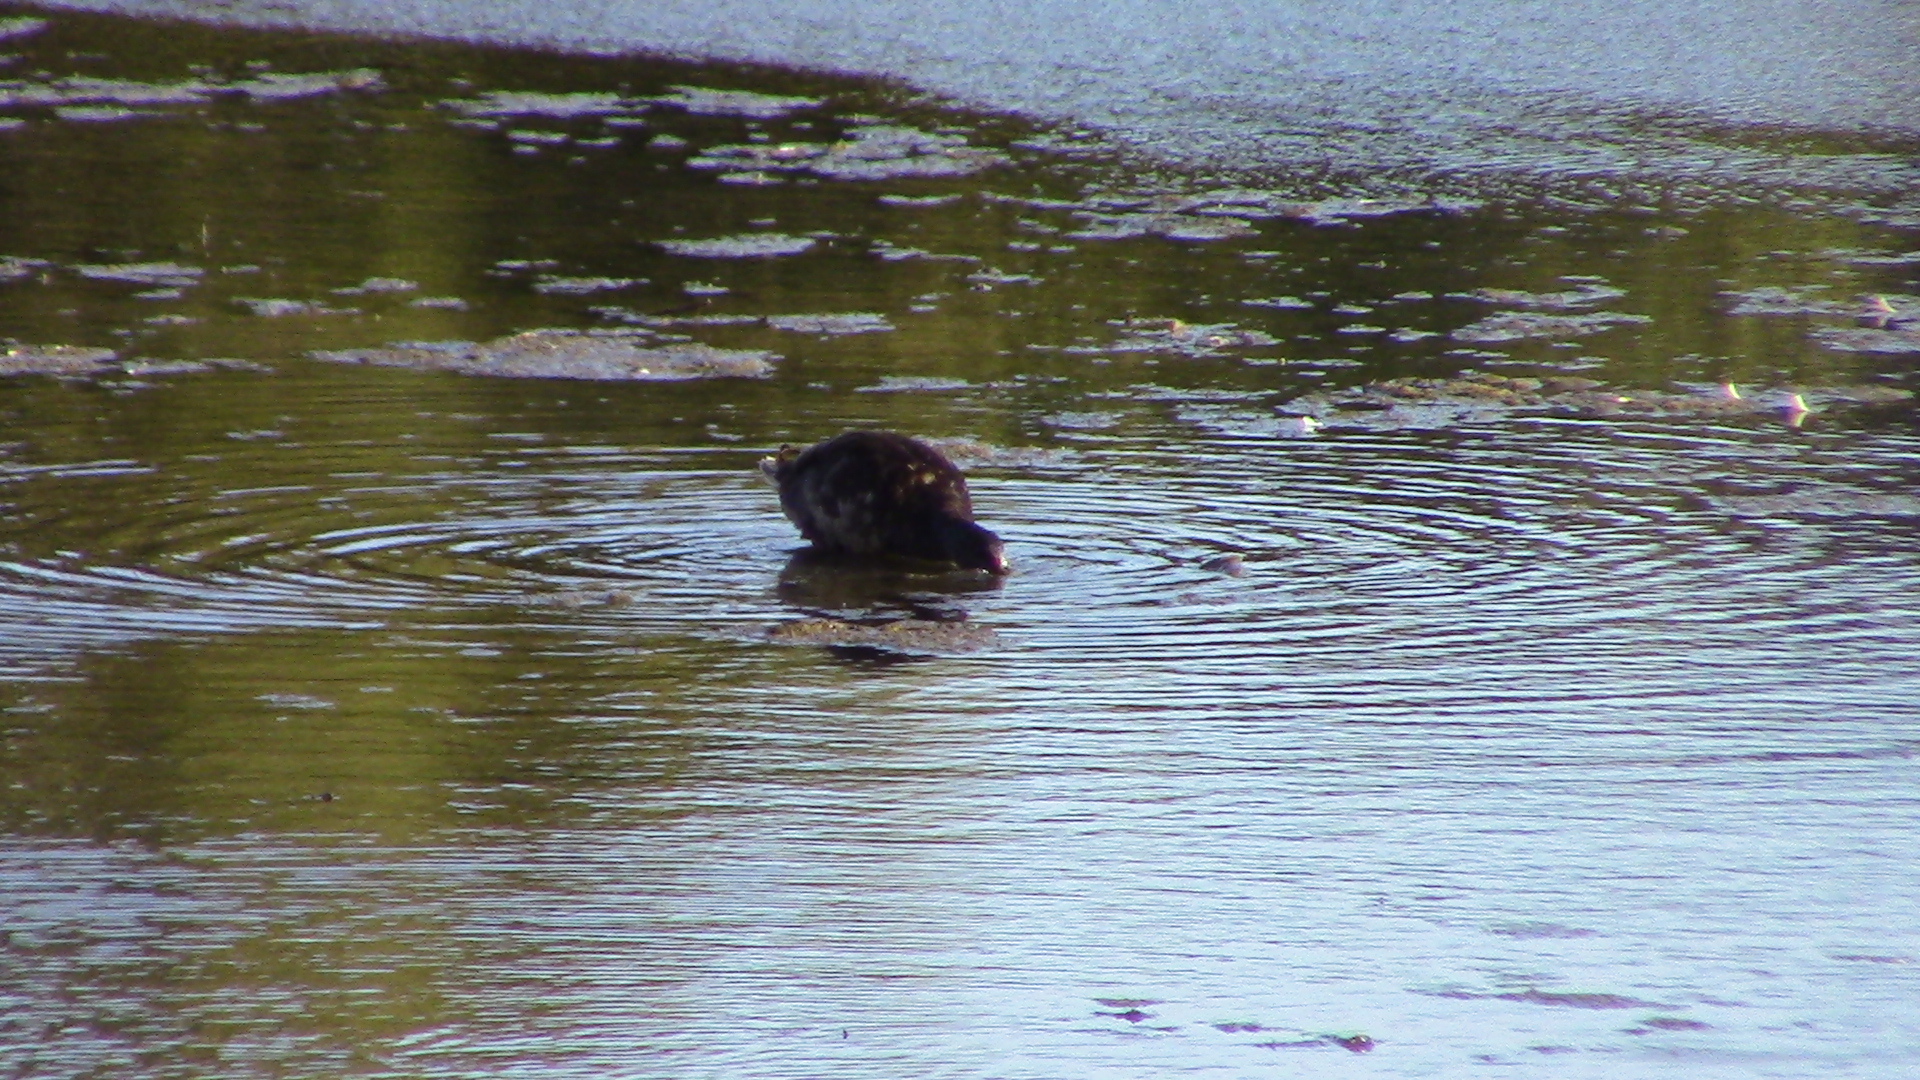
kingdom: Animalia
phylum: Chordata
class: Aves
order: Anseriformes
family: Anatidae
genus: Anas
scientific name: Anas platyrhynchos
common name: Mallard
